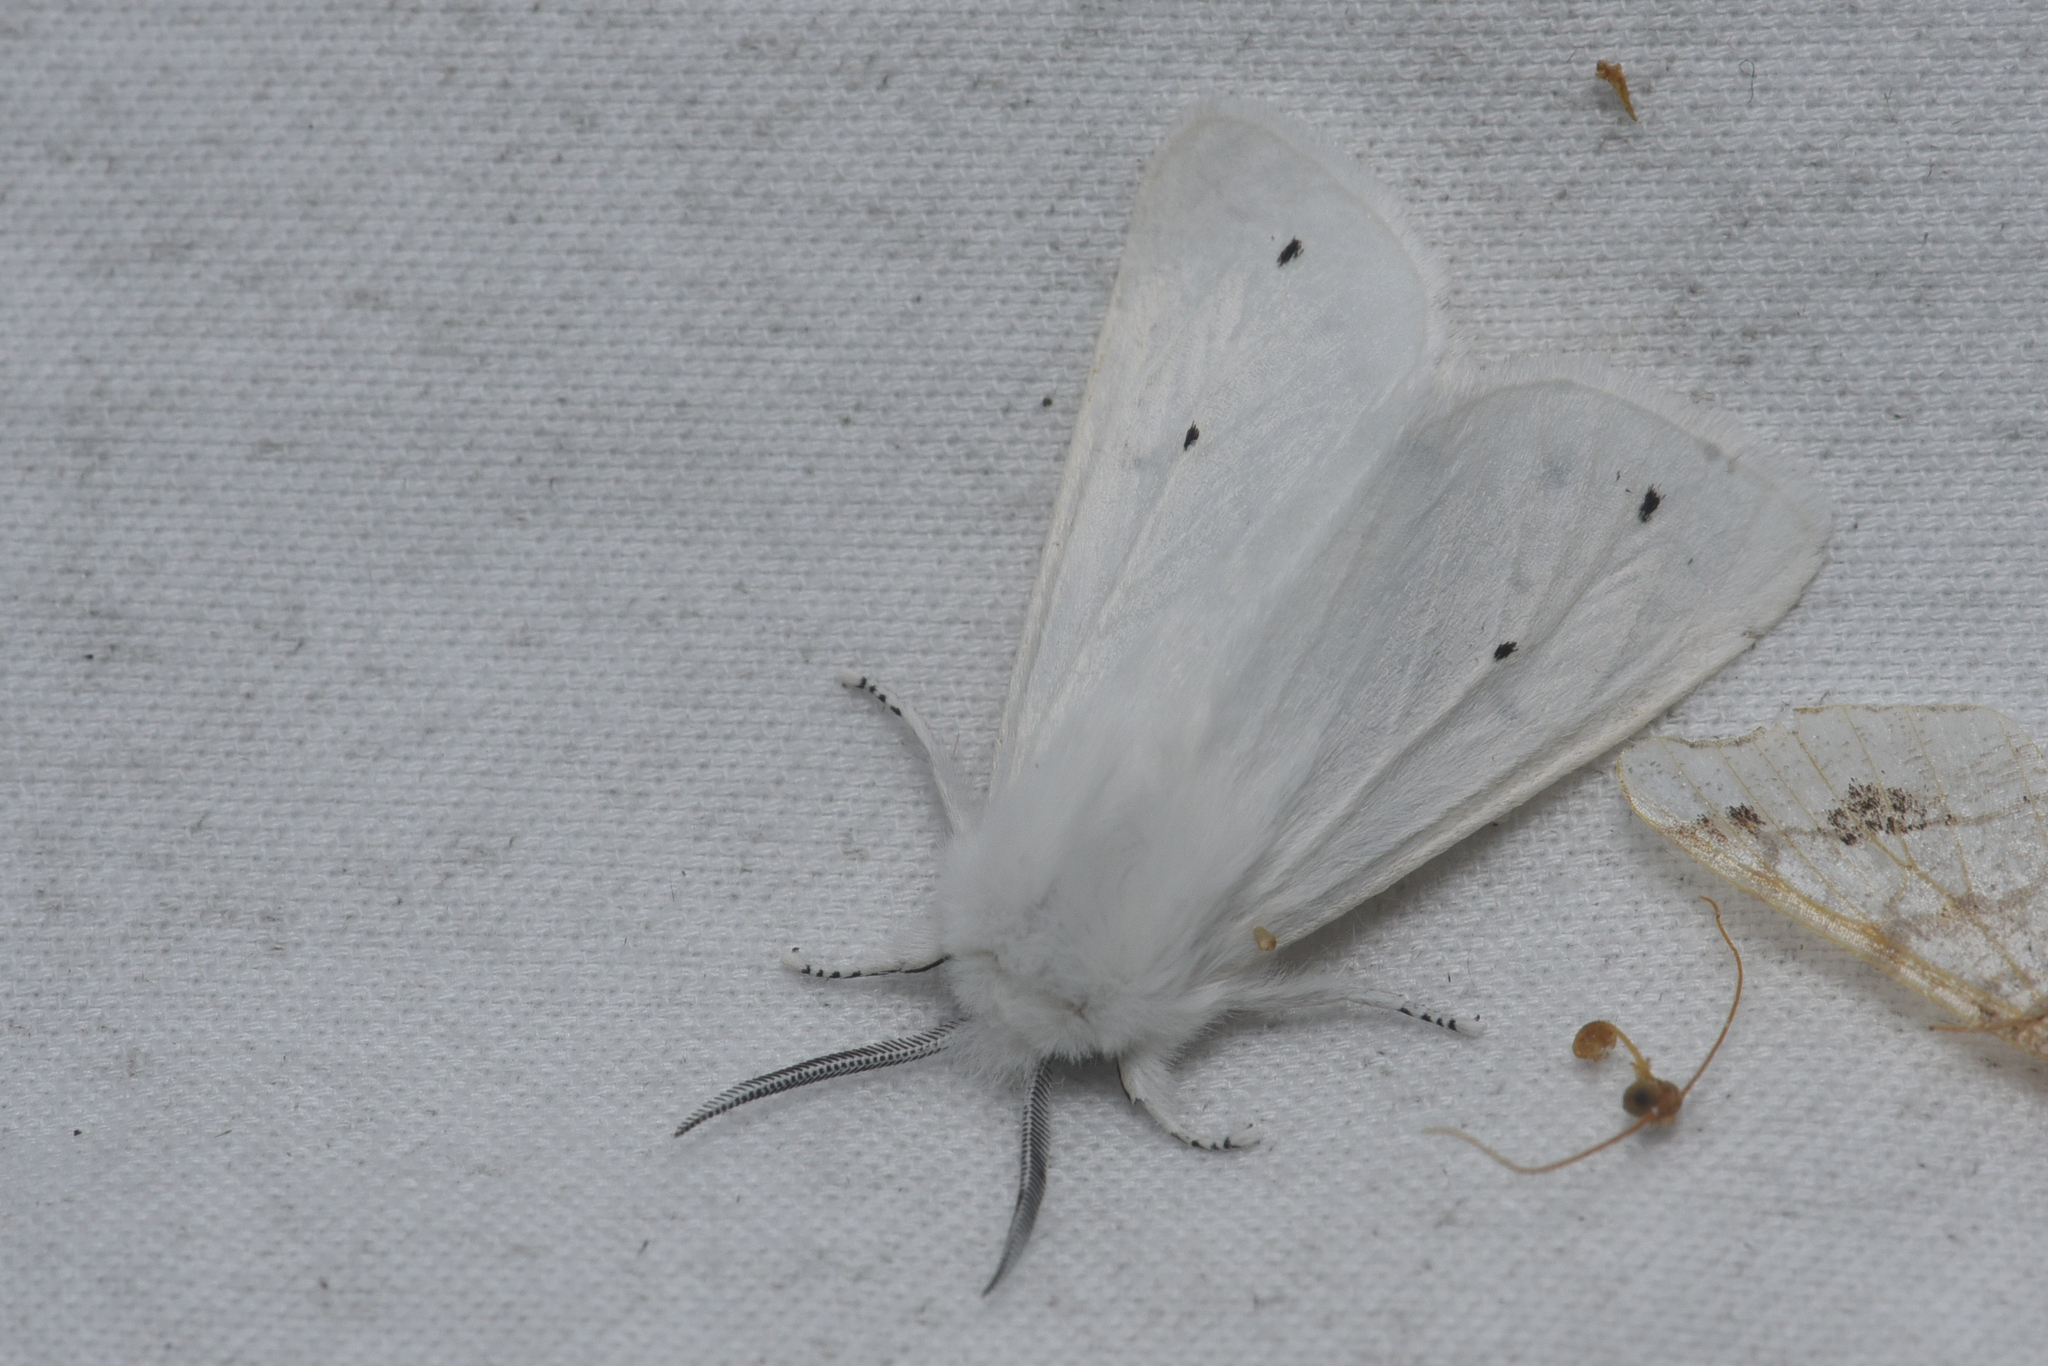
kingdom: Animalia
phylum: Arthropoda
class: Insecta
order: Lepidoptera
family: Erebidae
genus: Spilosoma
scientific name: Spilosoma virginica
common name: Virginia tiger moth
